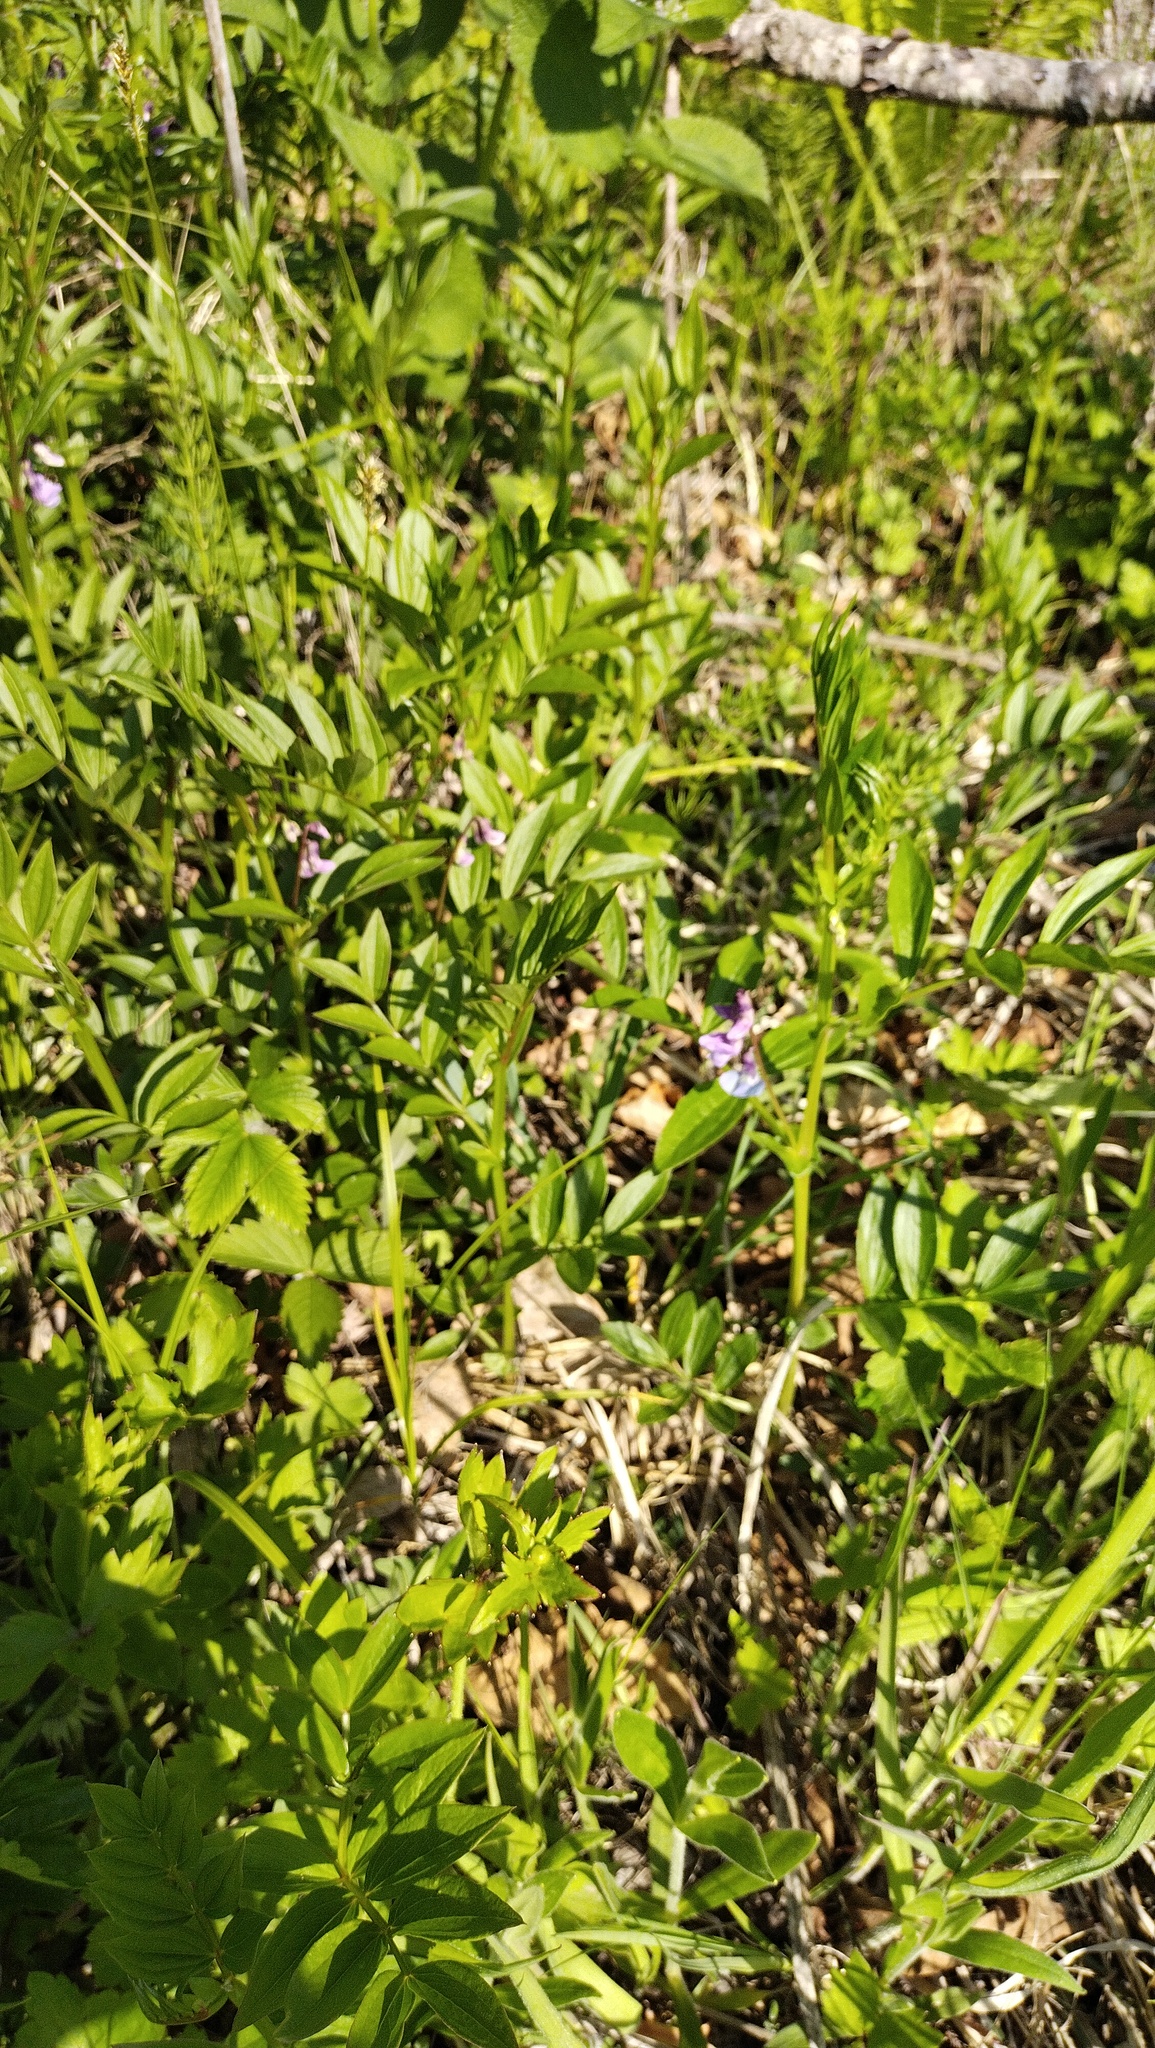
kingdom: Plantae
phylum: Tracheophyta
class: Magnoliopsida
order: Fabales
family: Fabaceae
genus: Lathyrus
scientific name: Lathyrus komarovii
